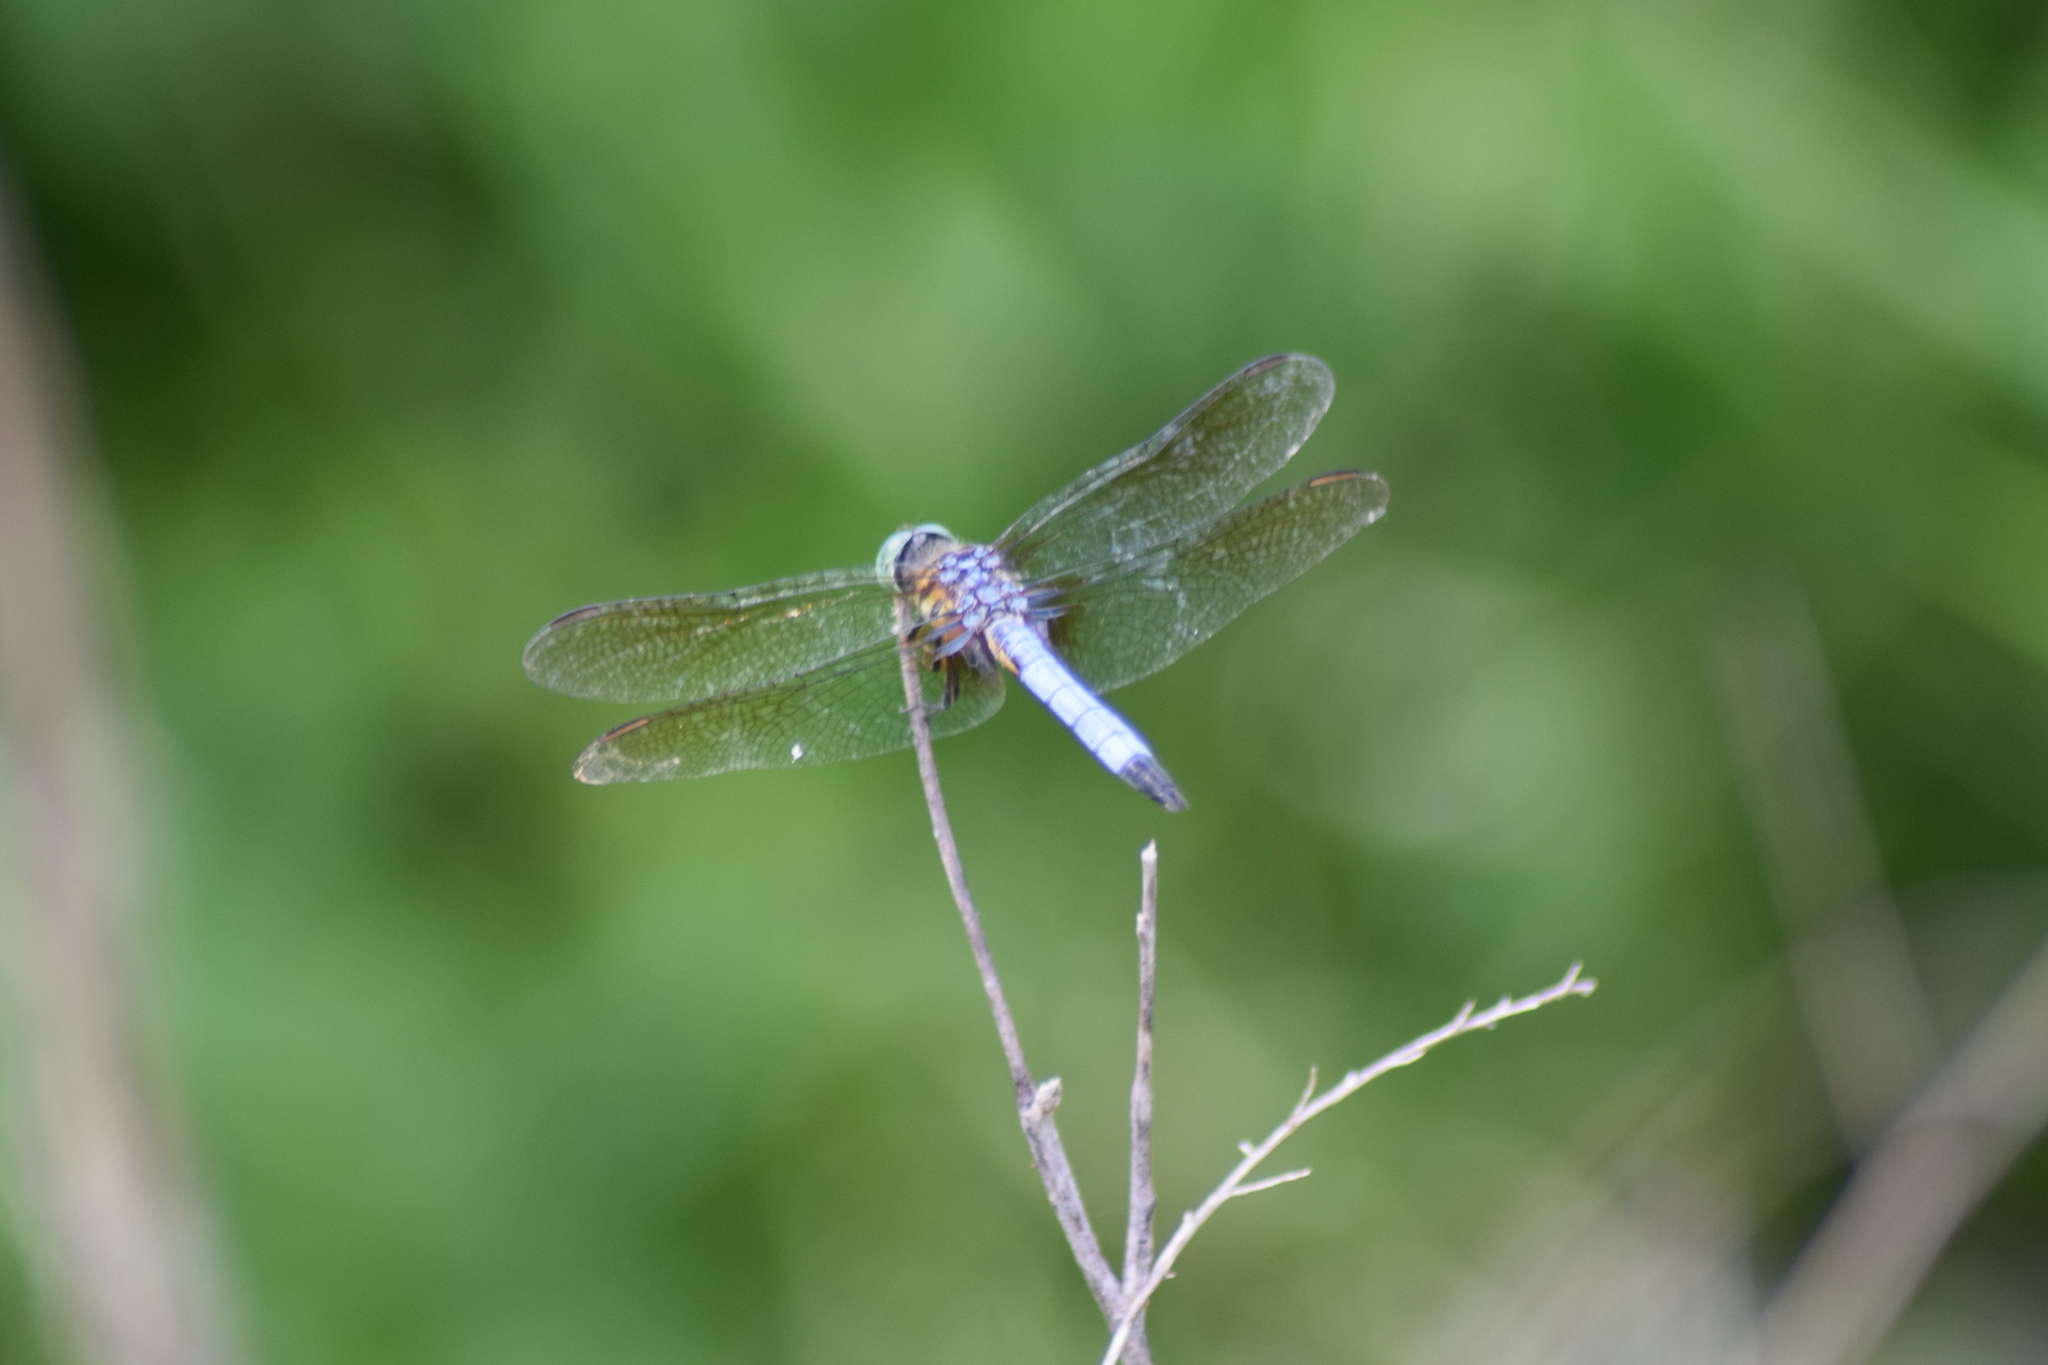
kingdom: Animalia
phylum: Arthropoda
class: Insecta
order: Odonata
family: Libellulidae
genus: Pachydiplax
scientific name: Pachydiplax longipennis
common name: Blue dasher
